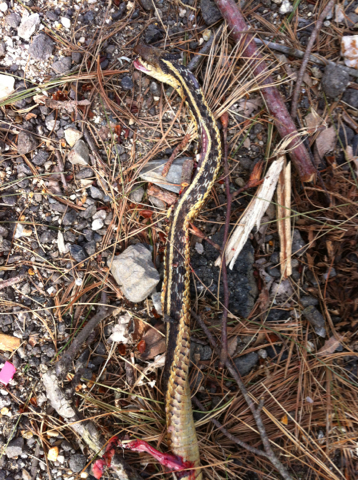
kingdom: Animalia
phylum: Chordata
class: Squamata
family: Colubridae
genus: Thamnophis
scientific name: Thamnophis sirtalis
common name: Common garter snake
